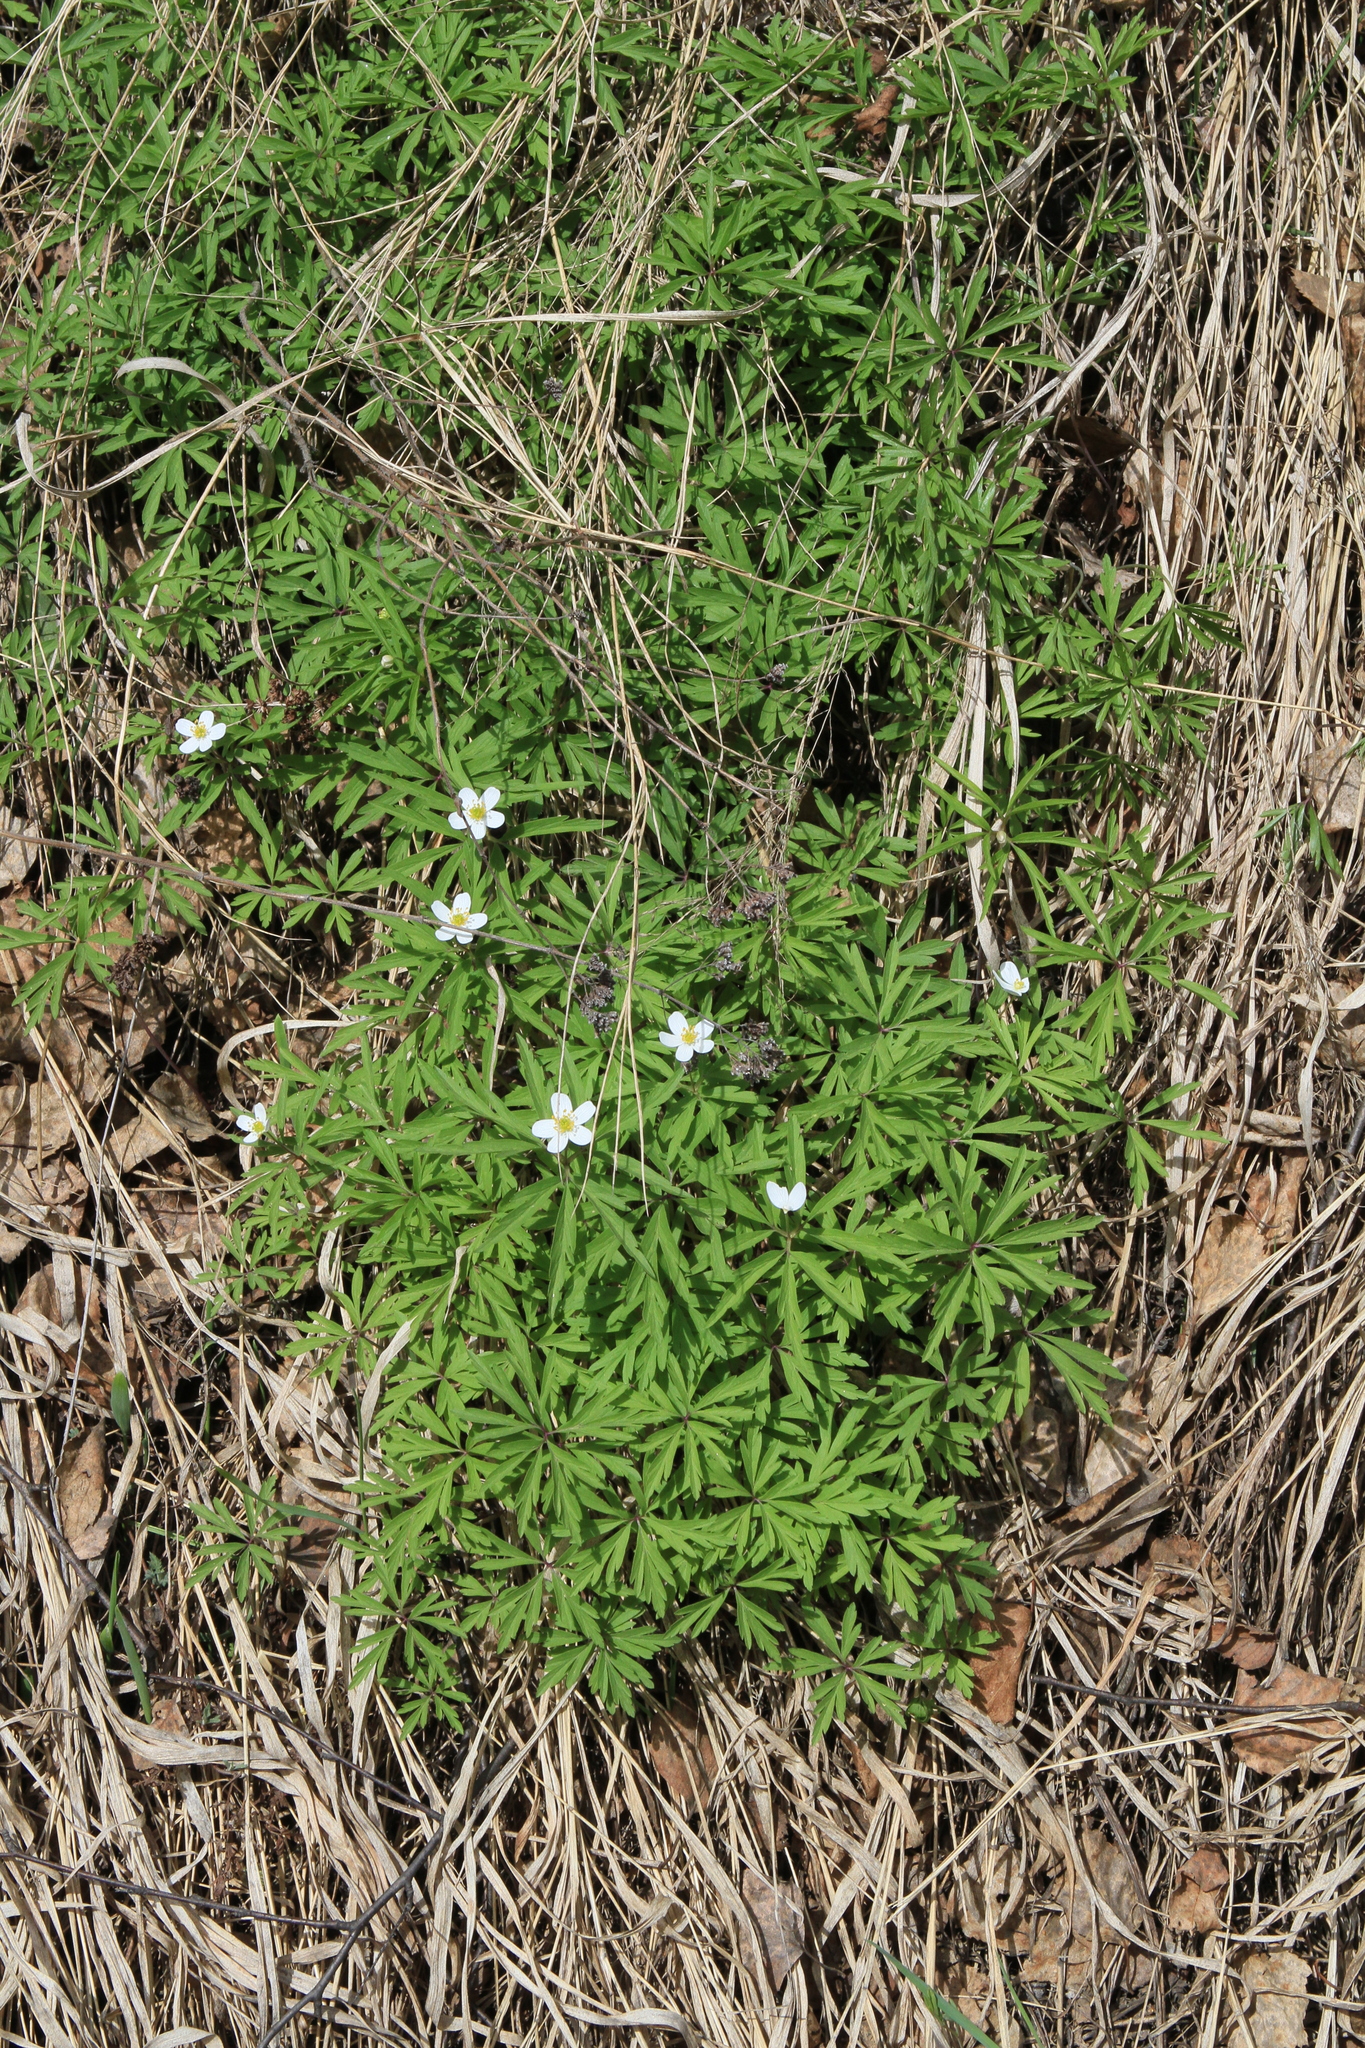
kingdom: Plantae
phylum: Tracheophyta
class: Magnoliopsida
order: Ranunculales
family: Ranunculaceae
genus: Anemone
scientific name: Anemone caerulea
